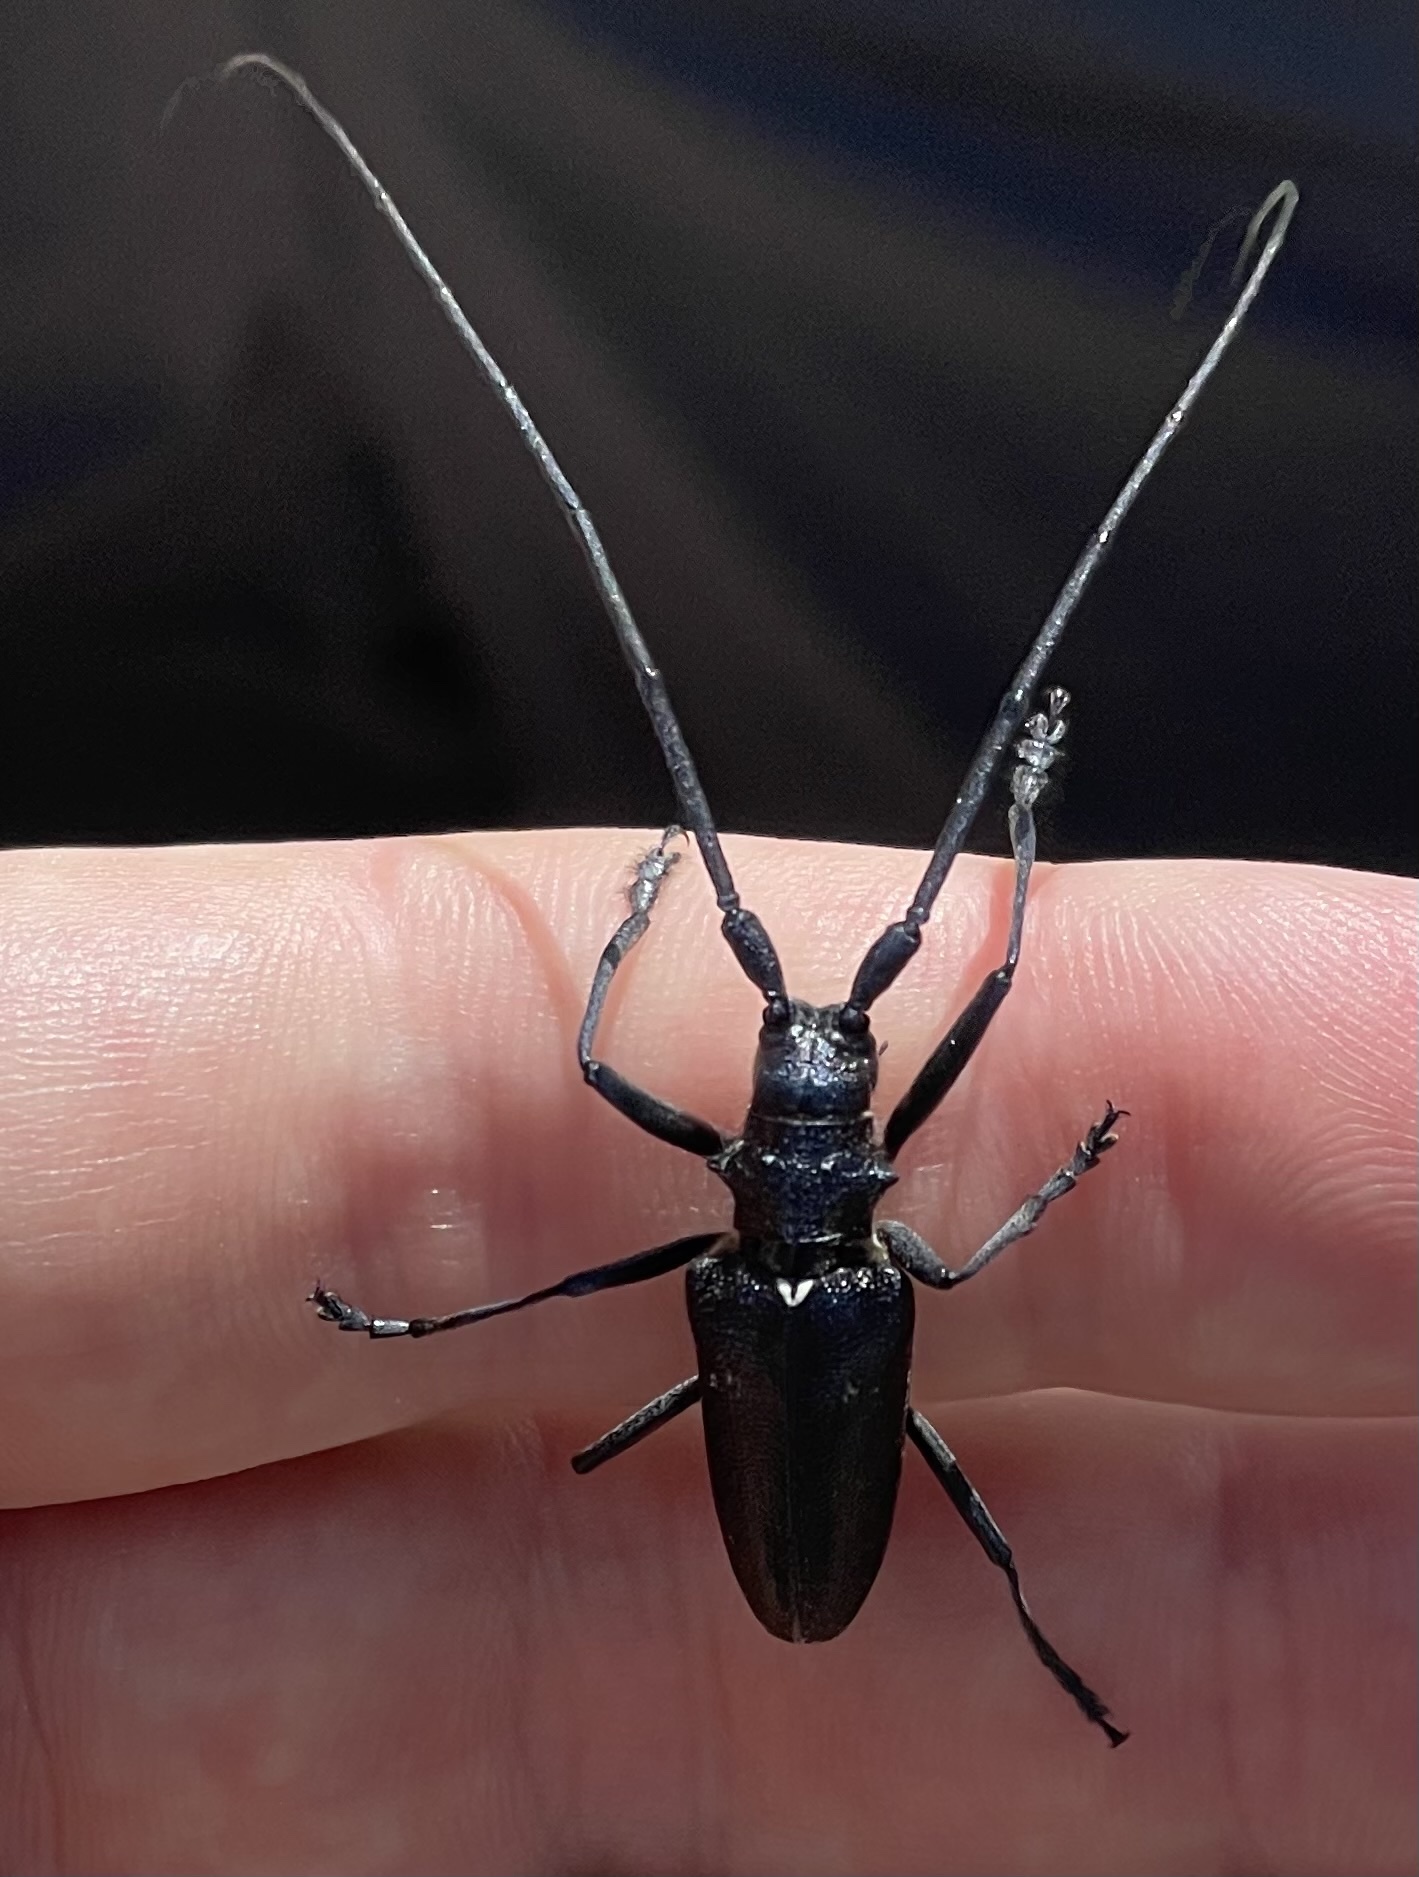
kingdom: Animalia
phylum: Arthropoda
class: Insecta
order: Coleoptera
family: Cerambycidae
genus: Monochamus
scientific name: Monochamus scutellatus
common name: White-spotted sawyer beetle
